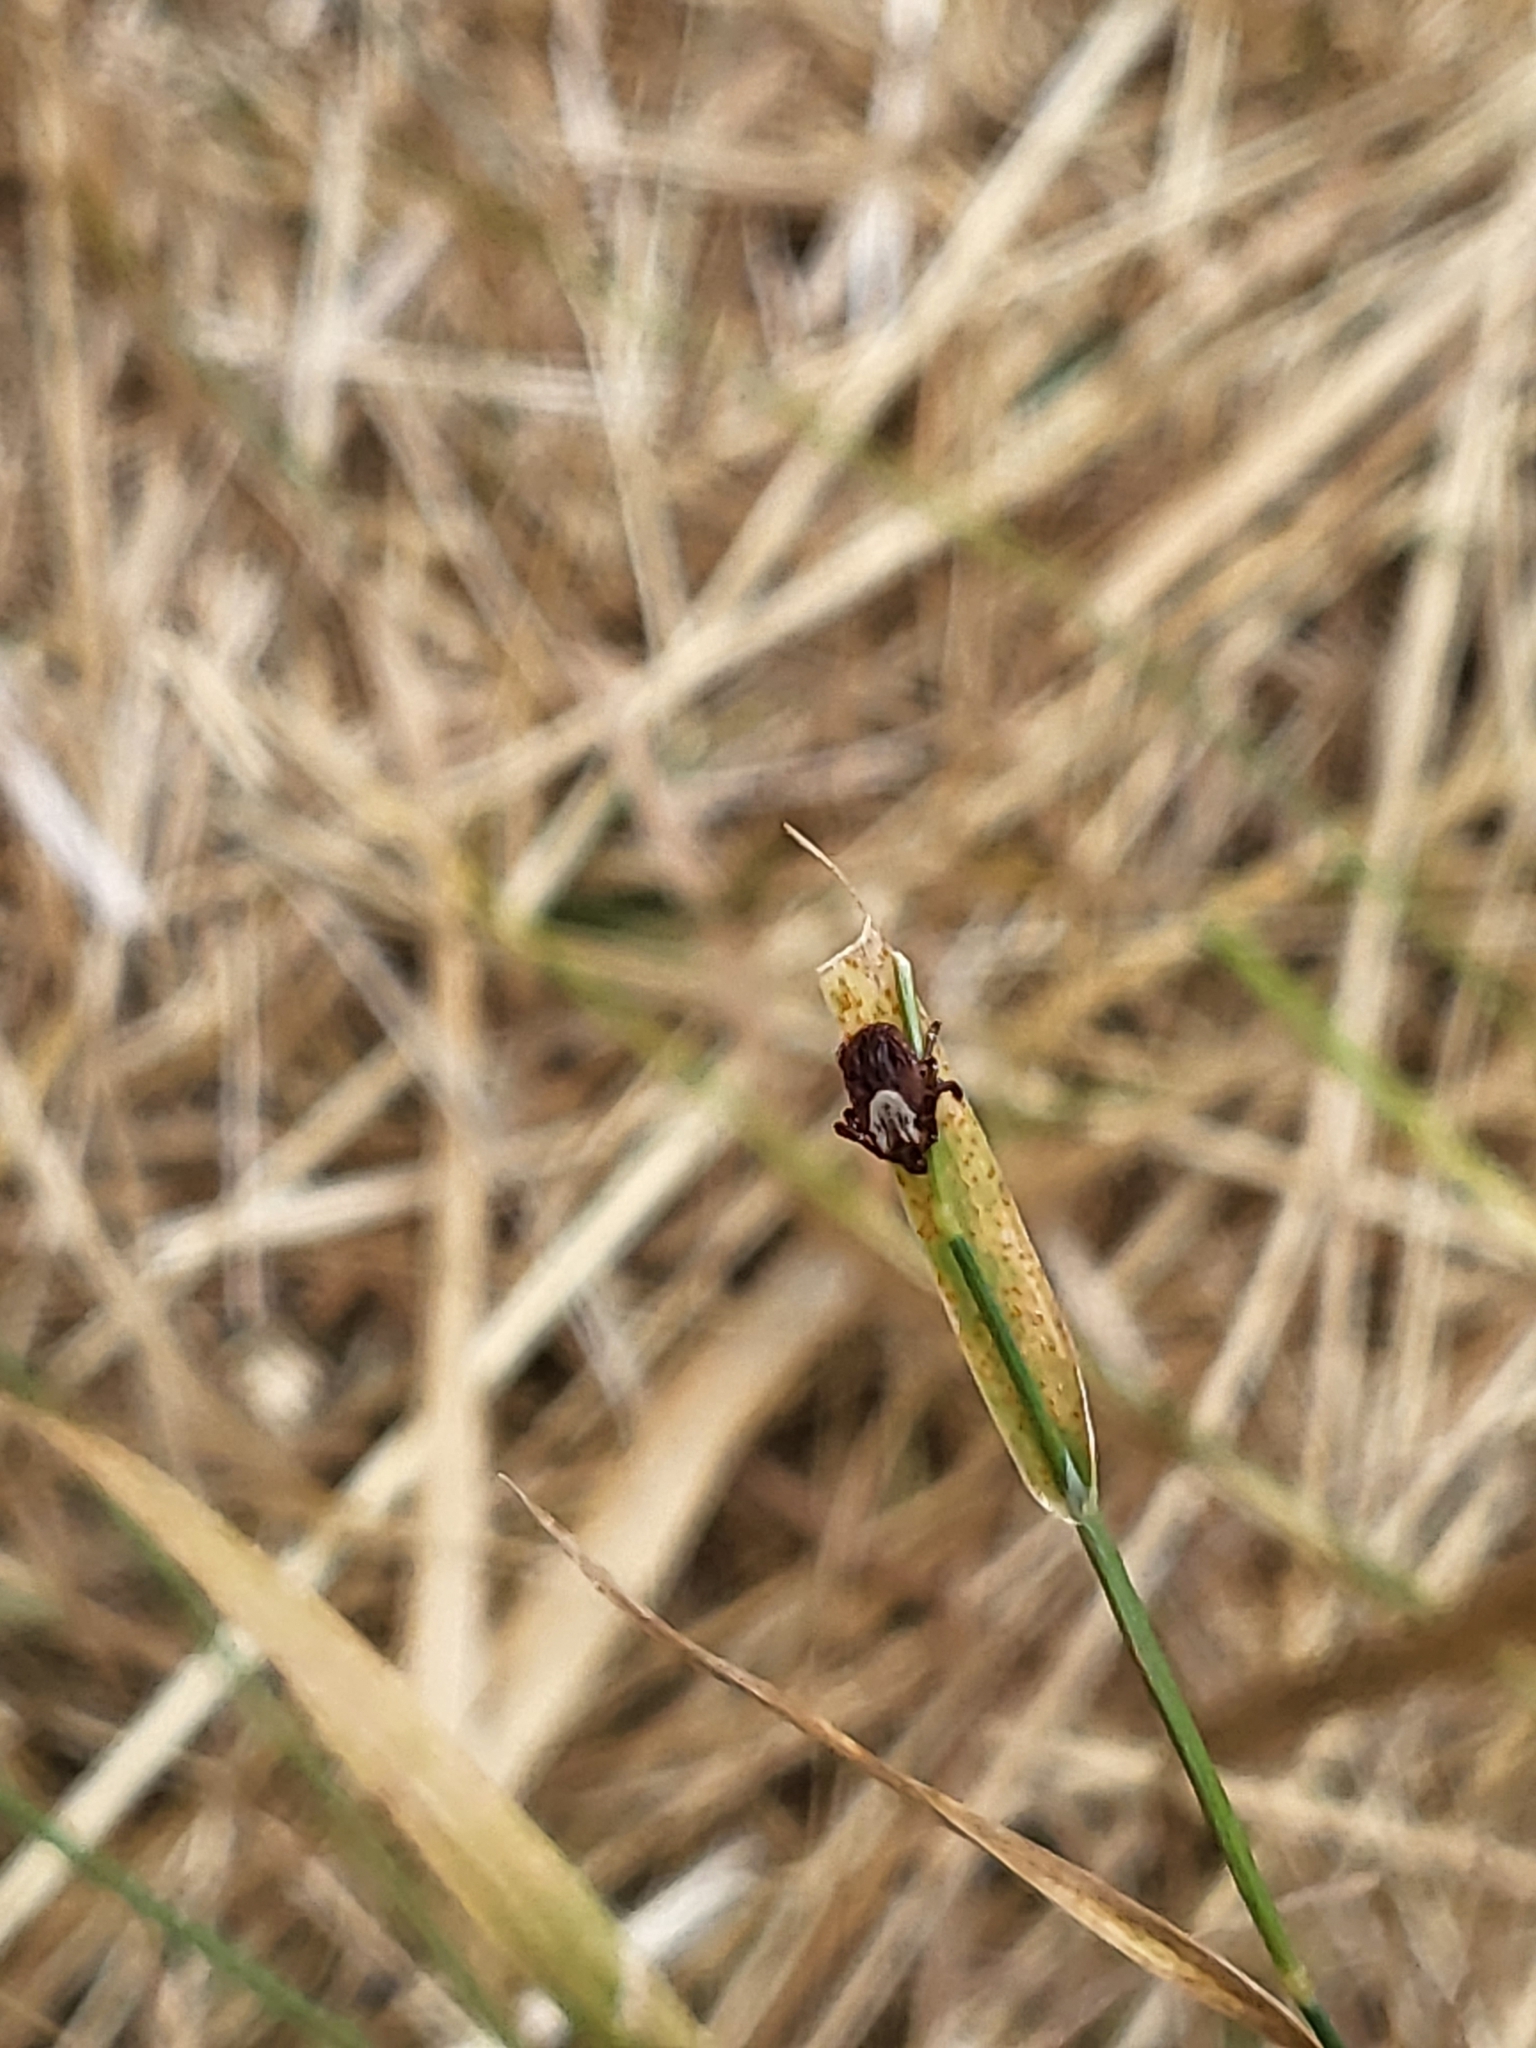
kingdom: Animalia
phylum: Arthropoda
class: Arachnida
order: Ixodida
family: Ixodidae
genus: Dermacentor
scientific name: Dermacentor occidentalis
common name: Net tick
